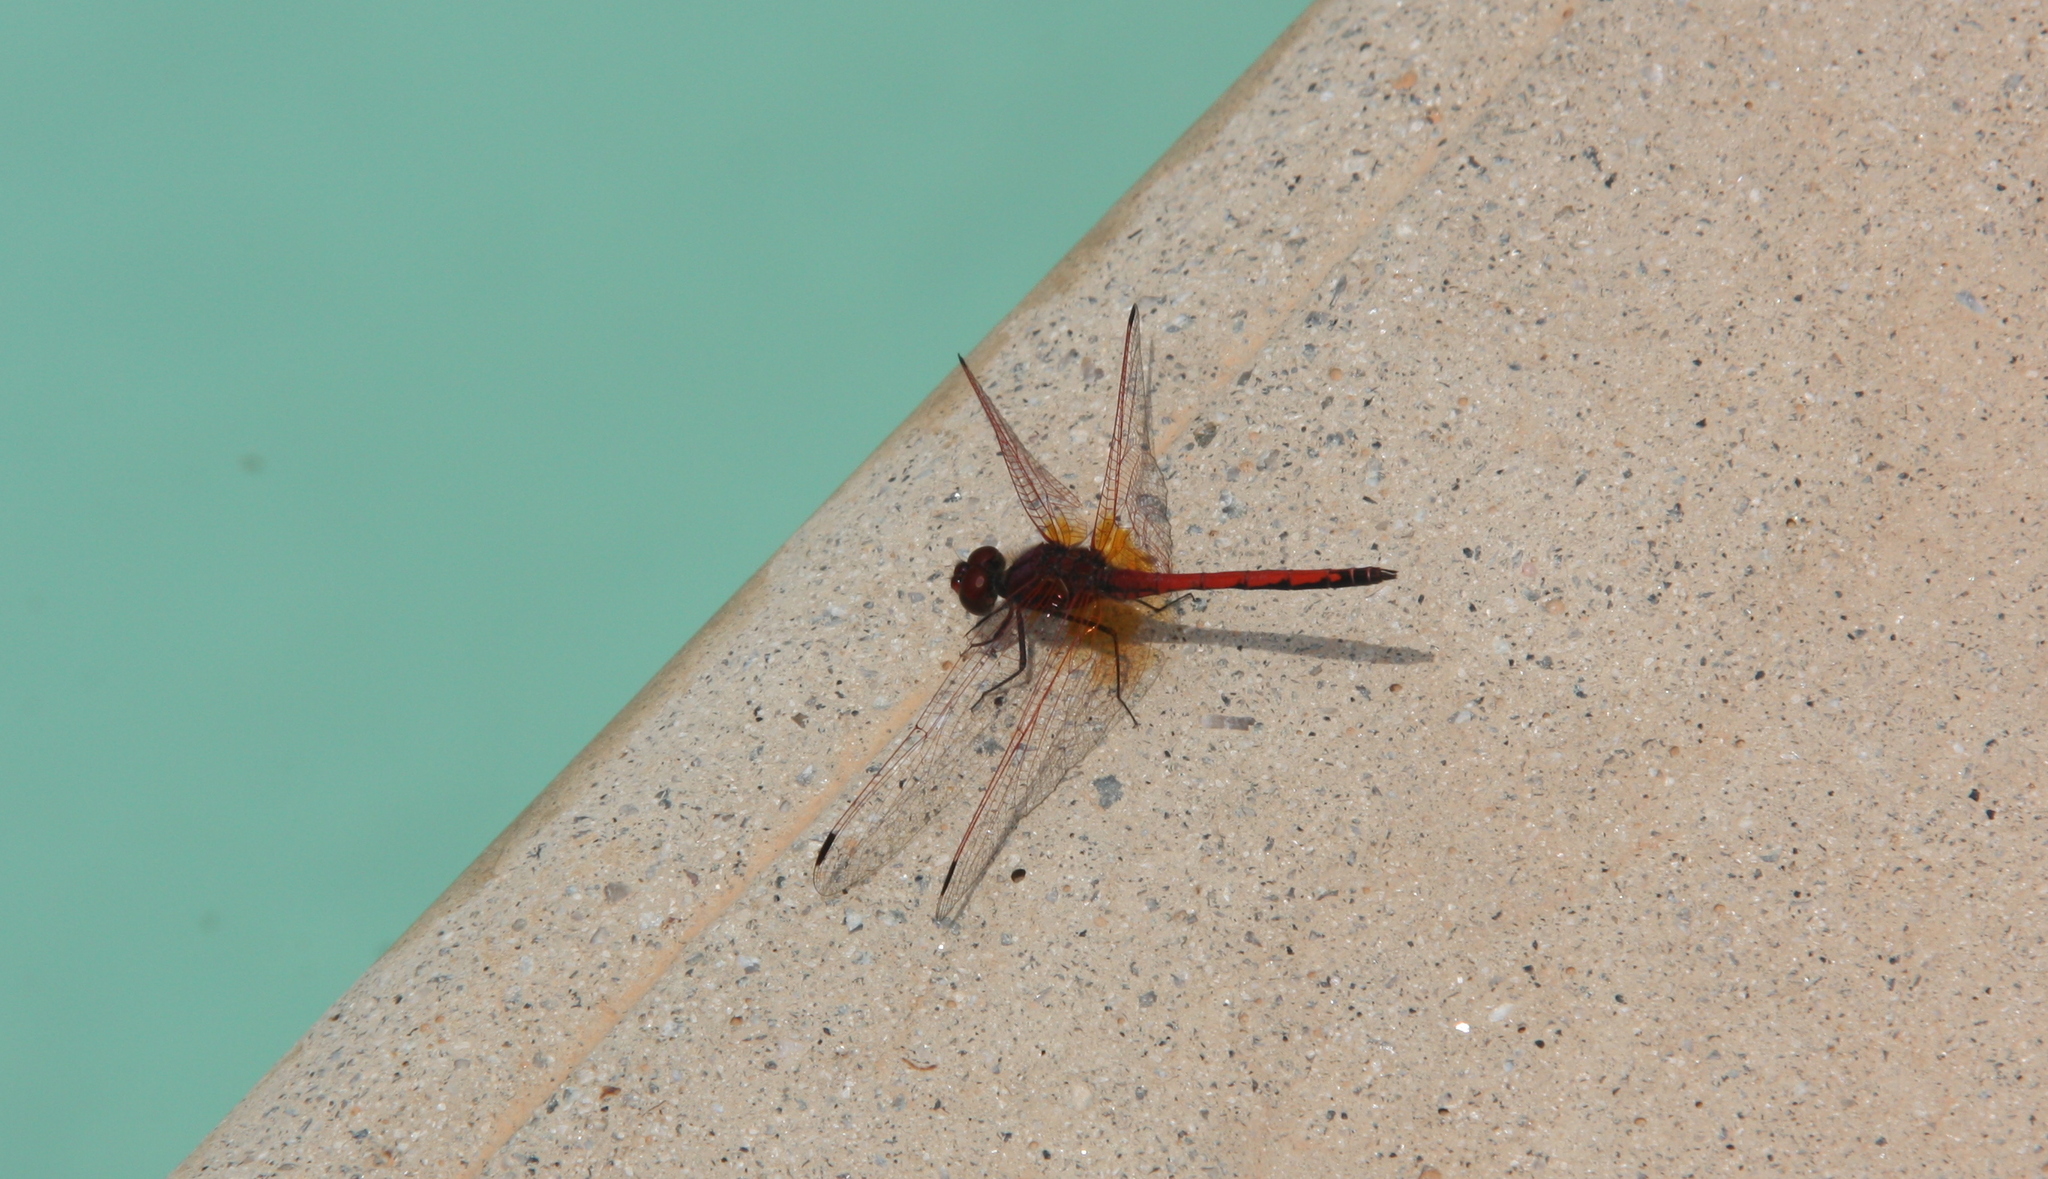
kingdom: Animalia
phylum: Arthropoda
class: Insecta
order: Odonata
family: Libellulidae
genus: Trithemis
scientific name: Trithemis arteriosa
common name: Red-veined dropwing
